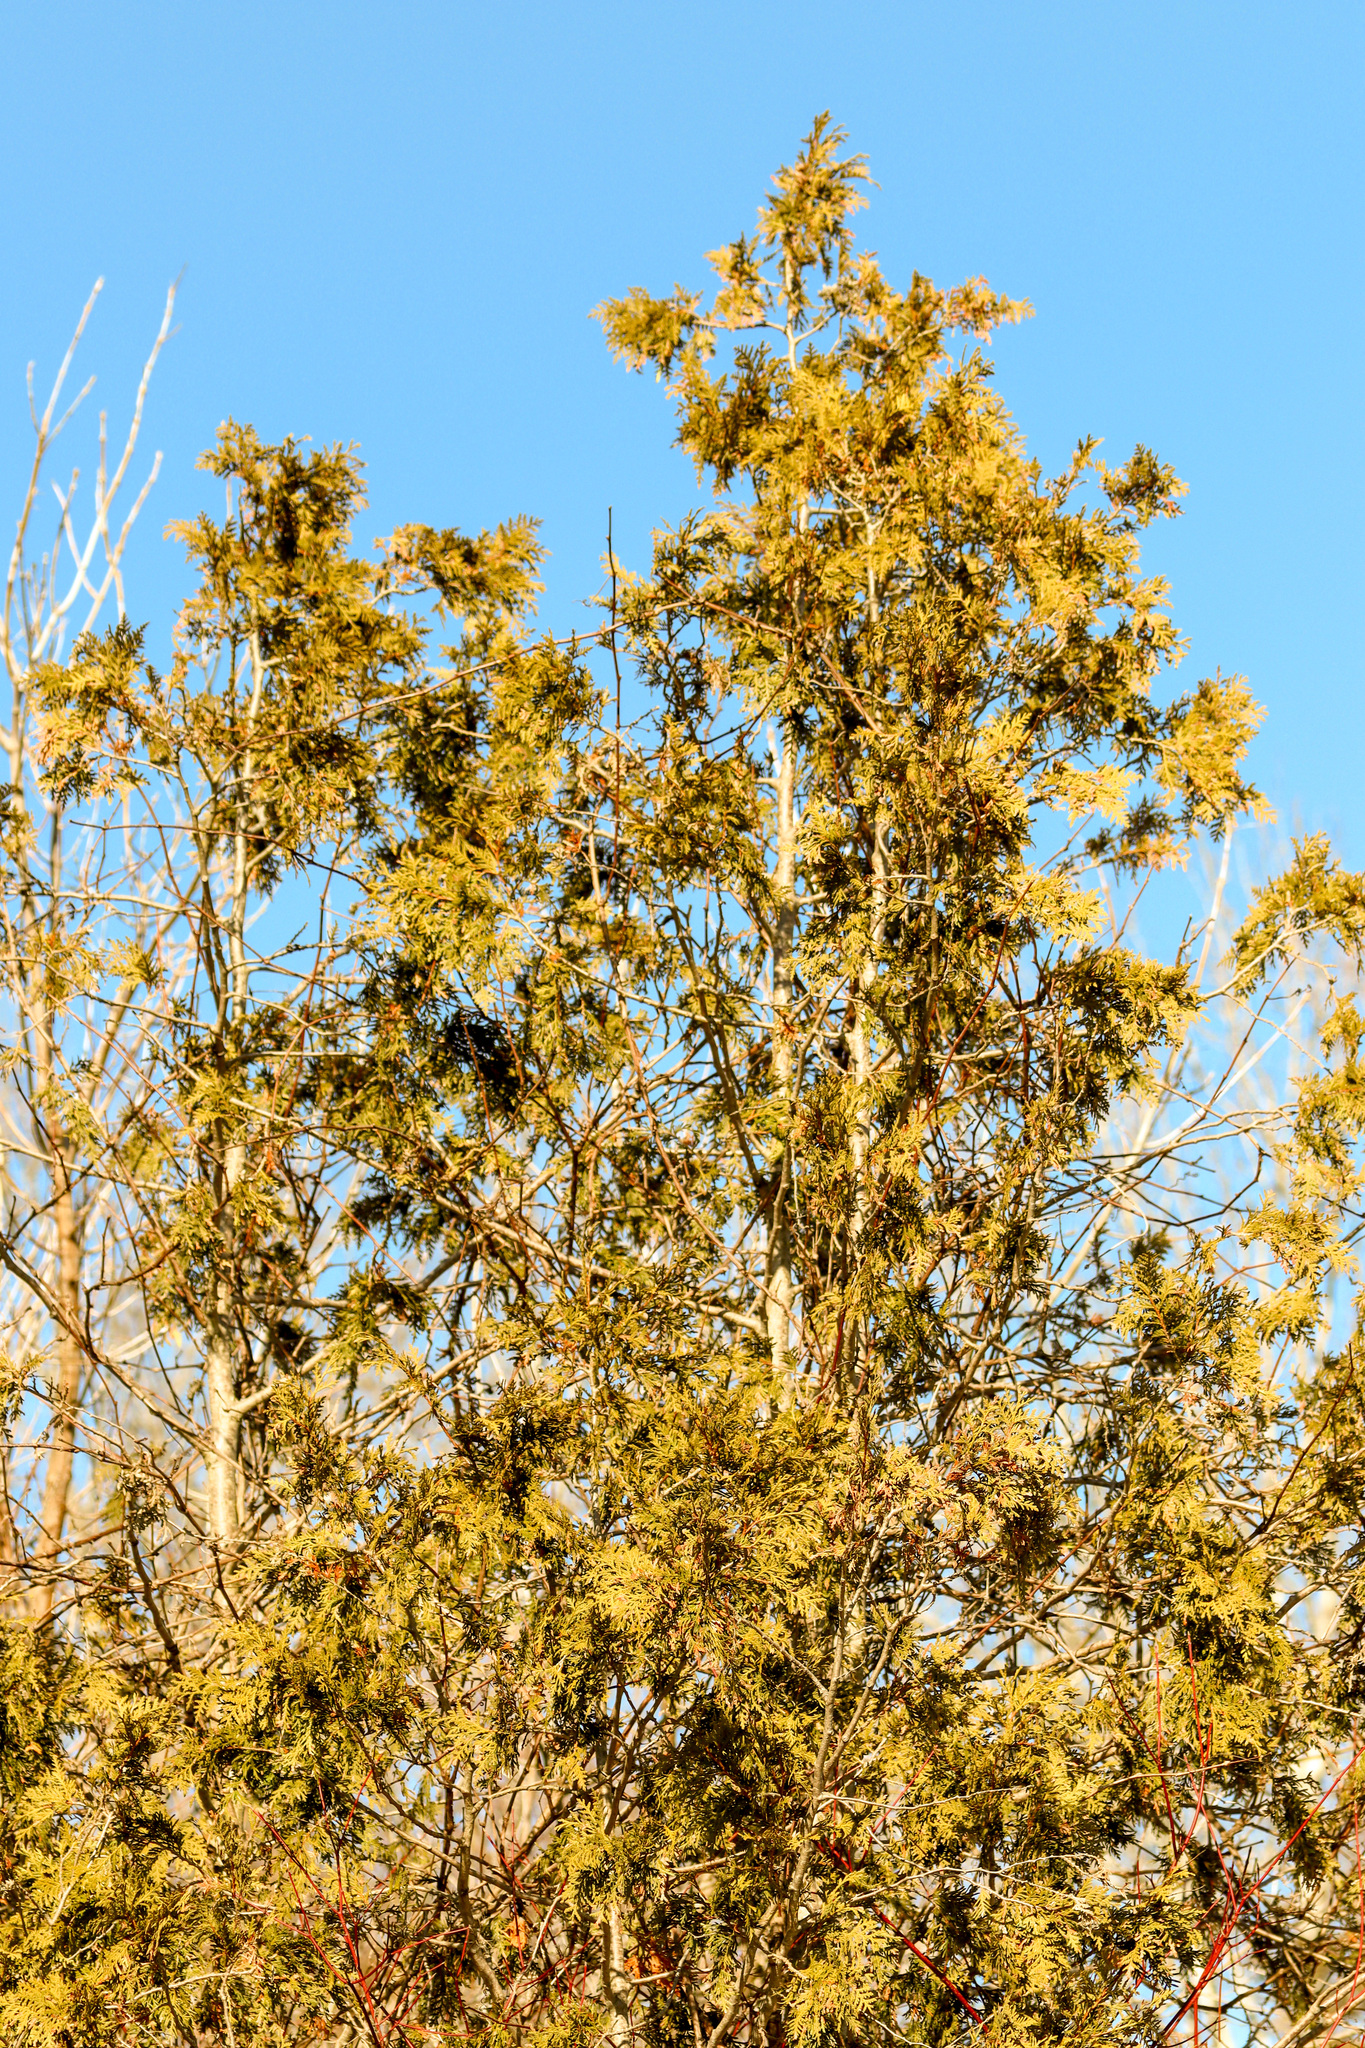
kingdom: Plantae
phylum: Tracheophyta
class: Pinopsida
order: Pinales
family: Cupressaceae
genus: Thuja
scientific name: Thuja occidentalis
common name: Northern white-cedar
